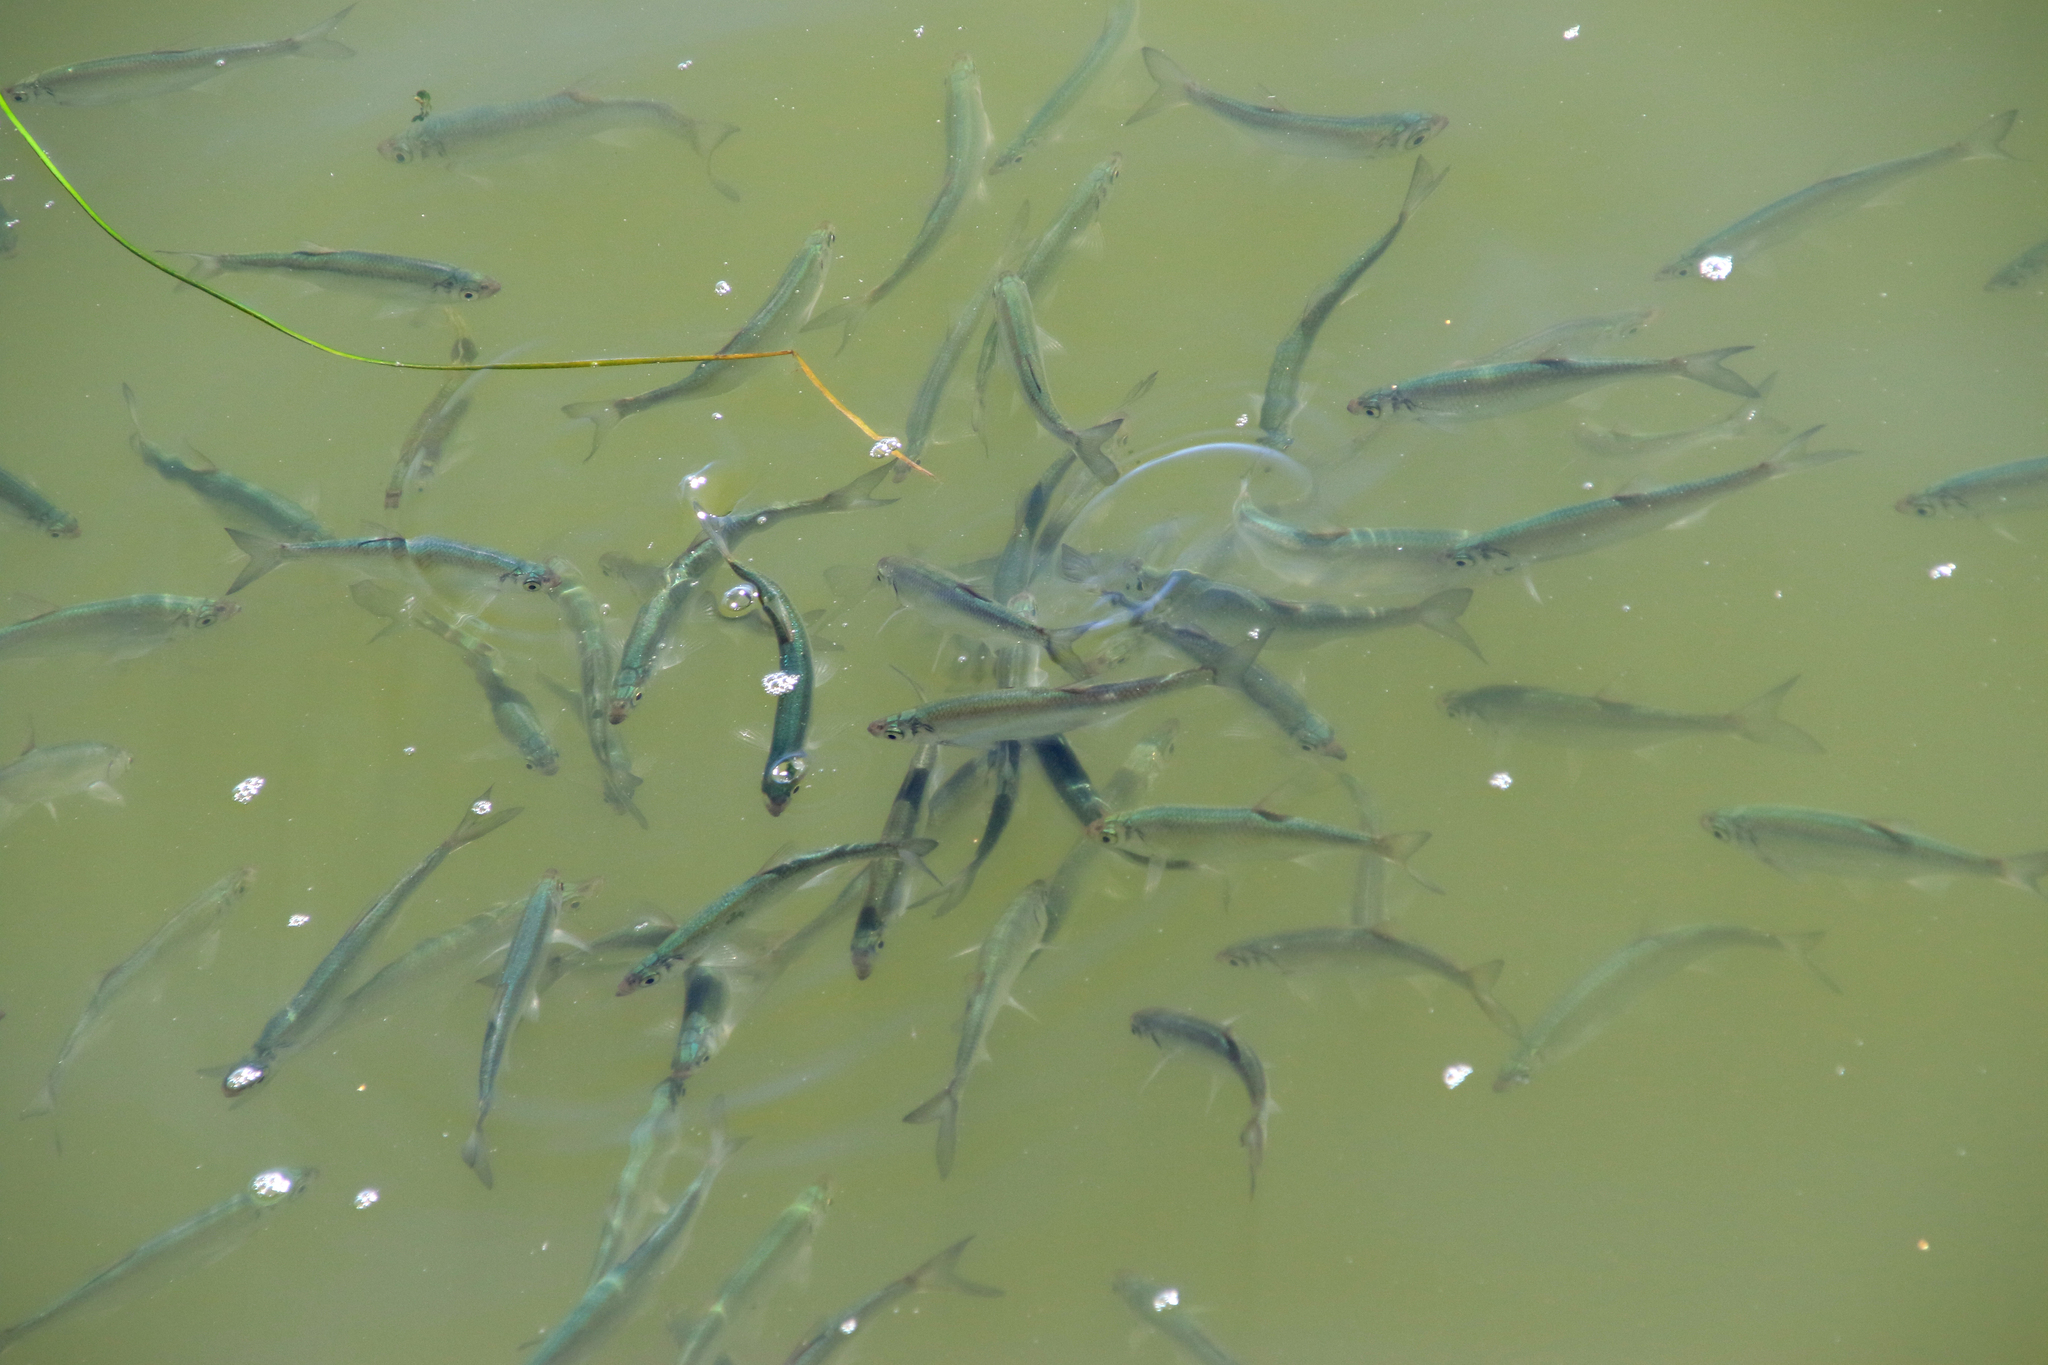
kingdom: Animalia
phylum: Chordata
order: Cypriniformes
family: Cyprinidae
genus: Alburnus
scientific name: Alburnus alburnus
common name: Bleak
